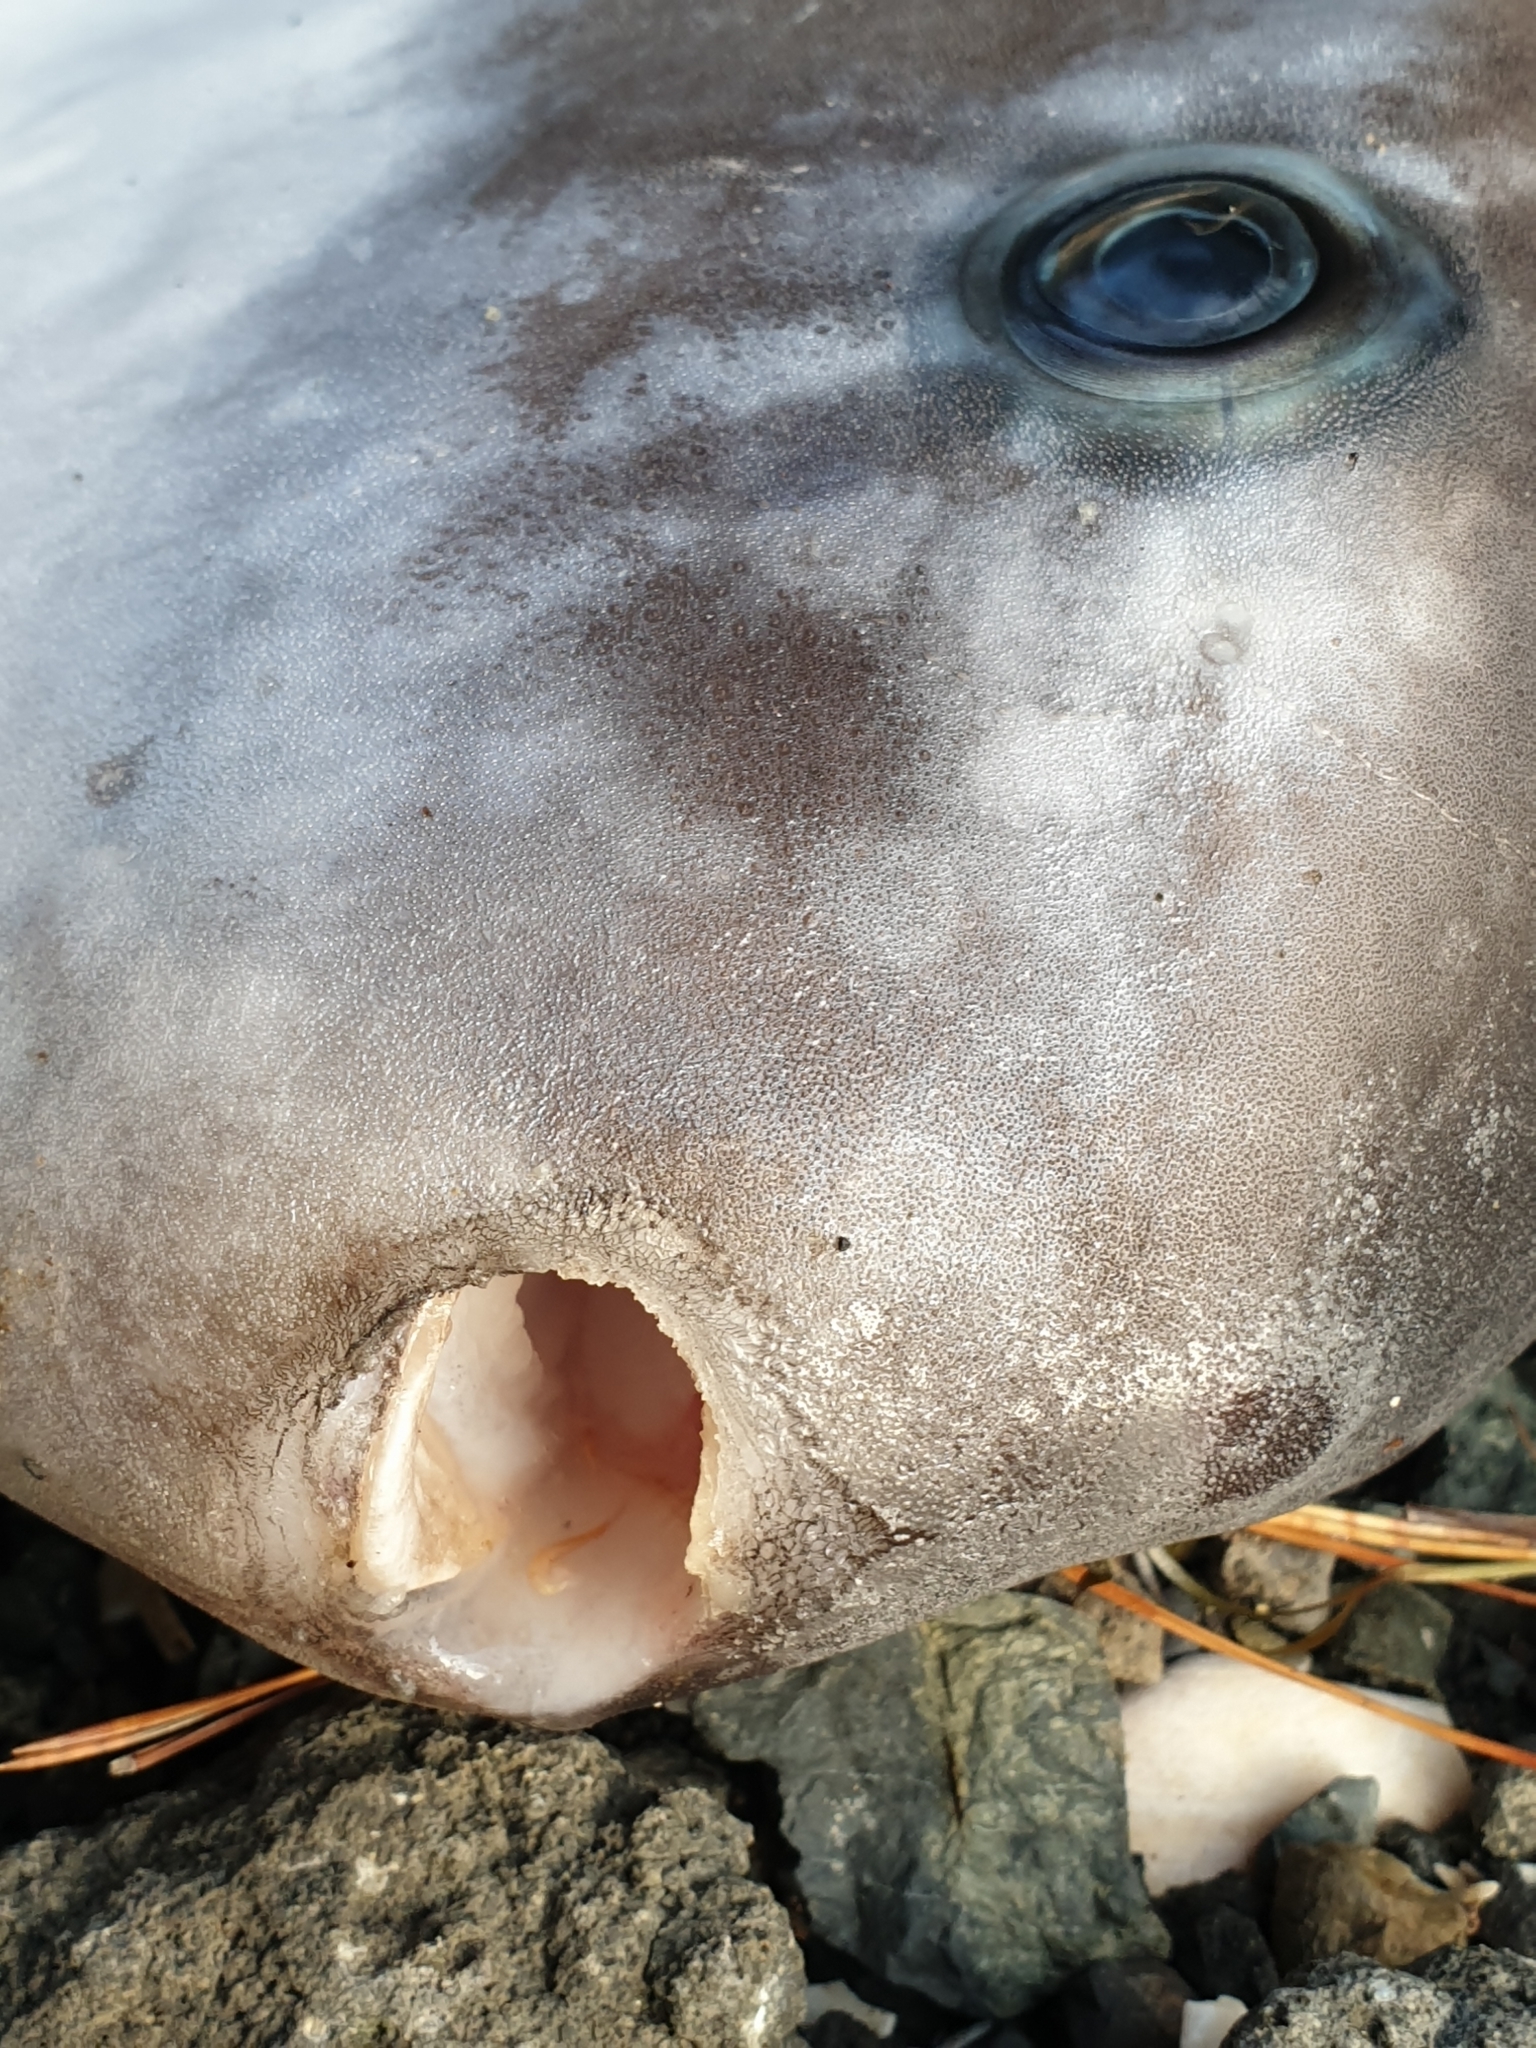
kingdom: Animalia
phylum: Chordata
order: Tetraodontiformes
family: Molidae
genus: Mola
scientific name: Mola mola
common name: Ocean sunfish
